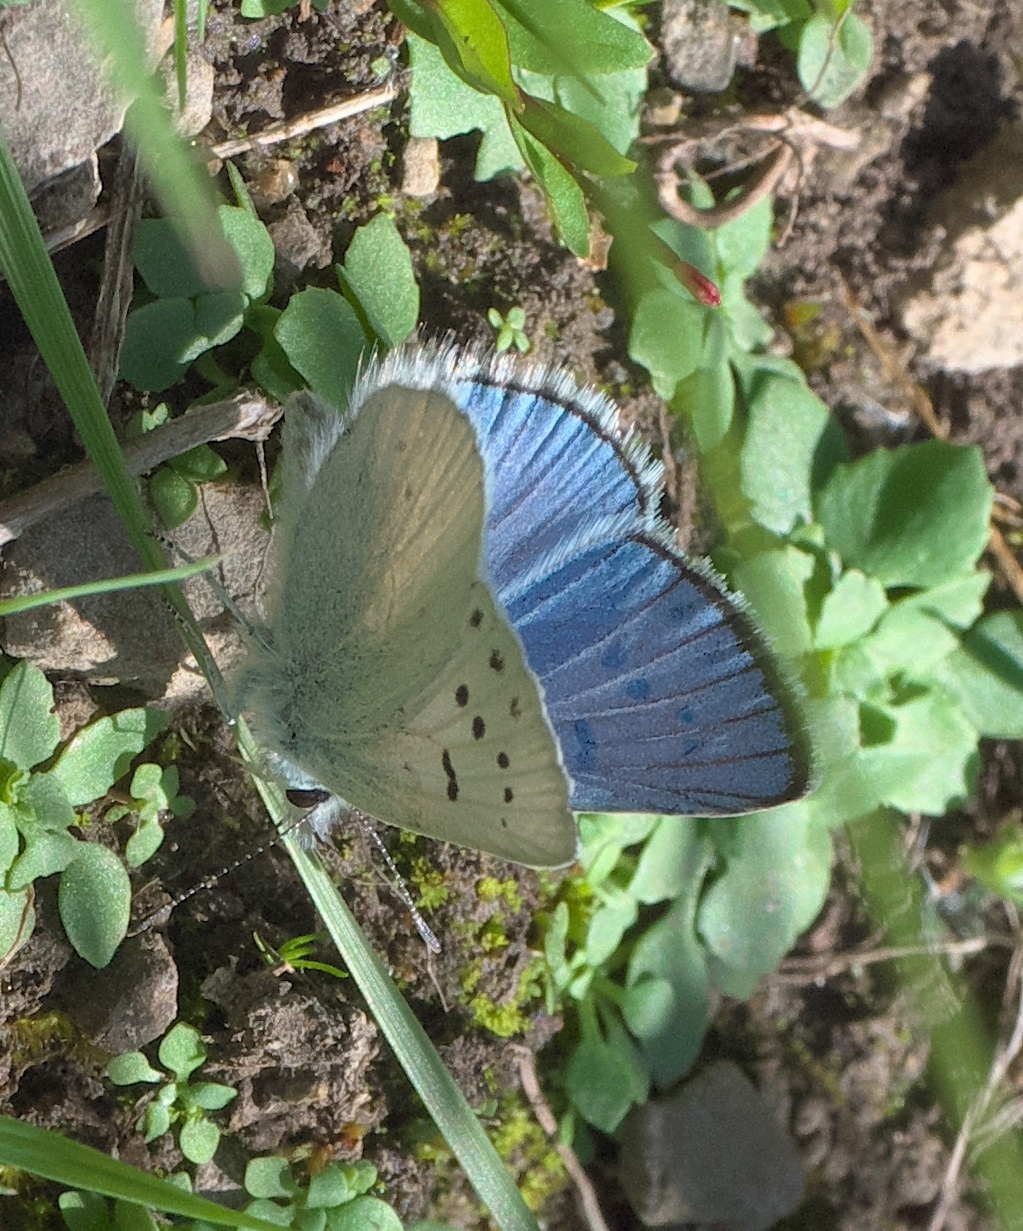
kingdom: Animalia
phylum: Arthropoda
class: Insecta
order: Lepidoptera
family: Lycaenidae
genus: Tharsalea
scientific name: Tharsalea heteronea
